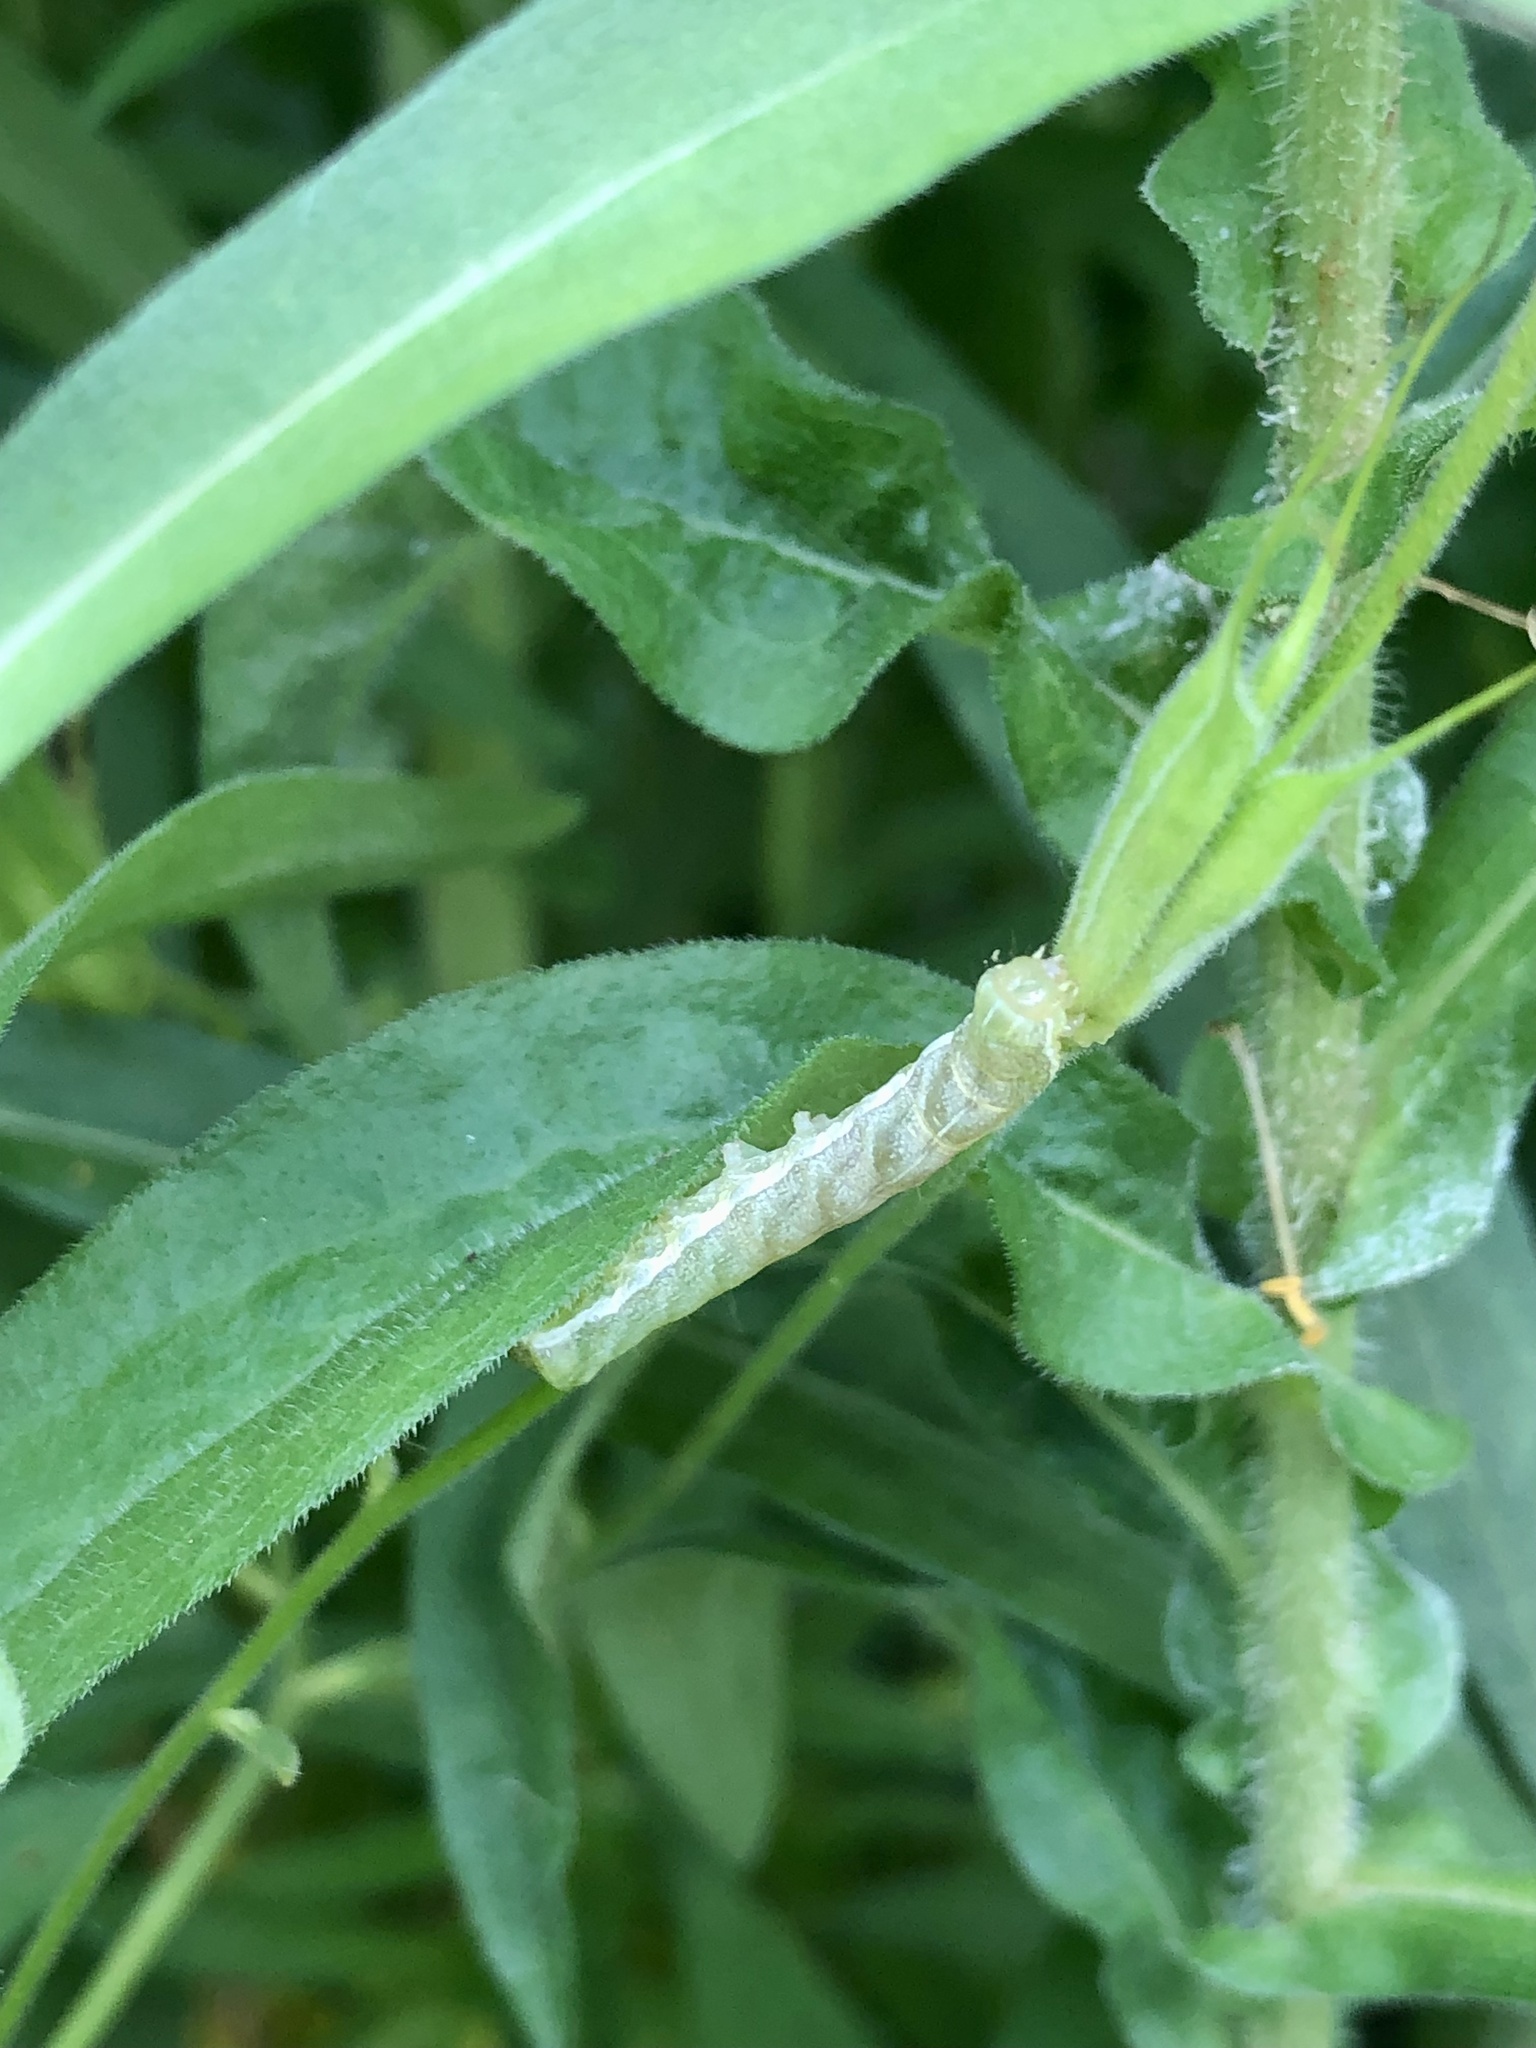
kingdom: Animalia
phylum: Arthropoda
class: Insecta
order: Lepidoptera
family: Noctuidae
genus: Melanchra
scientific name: Melanchra adjuncta
